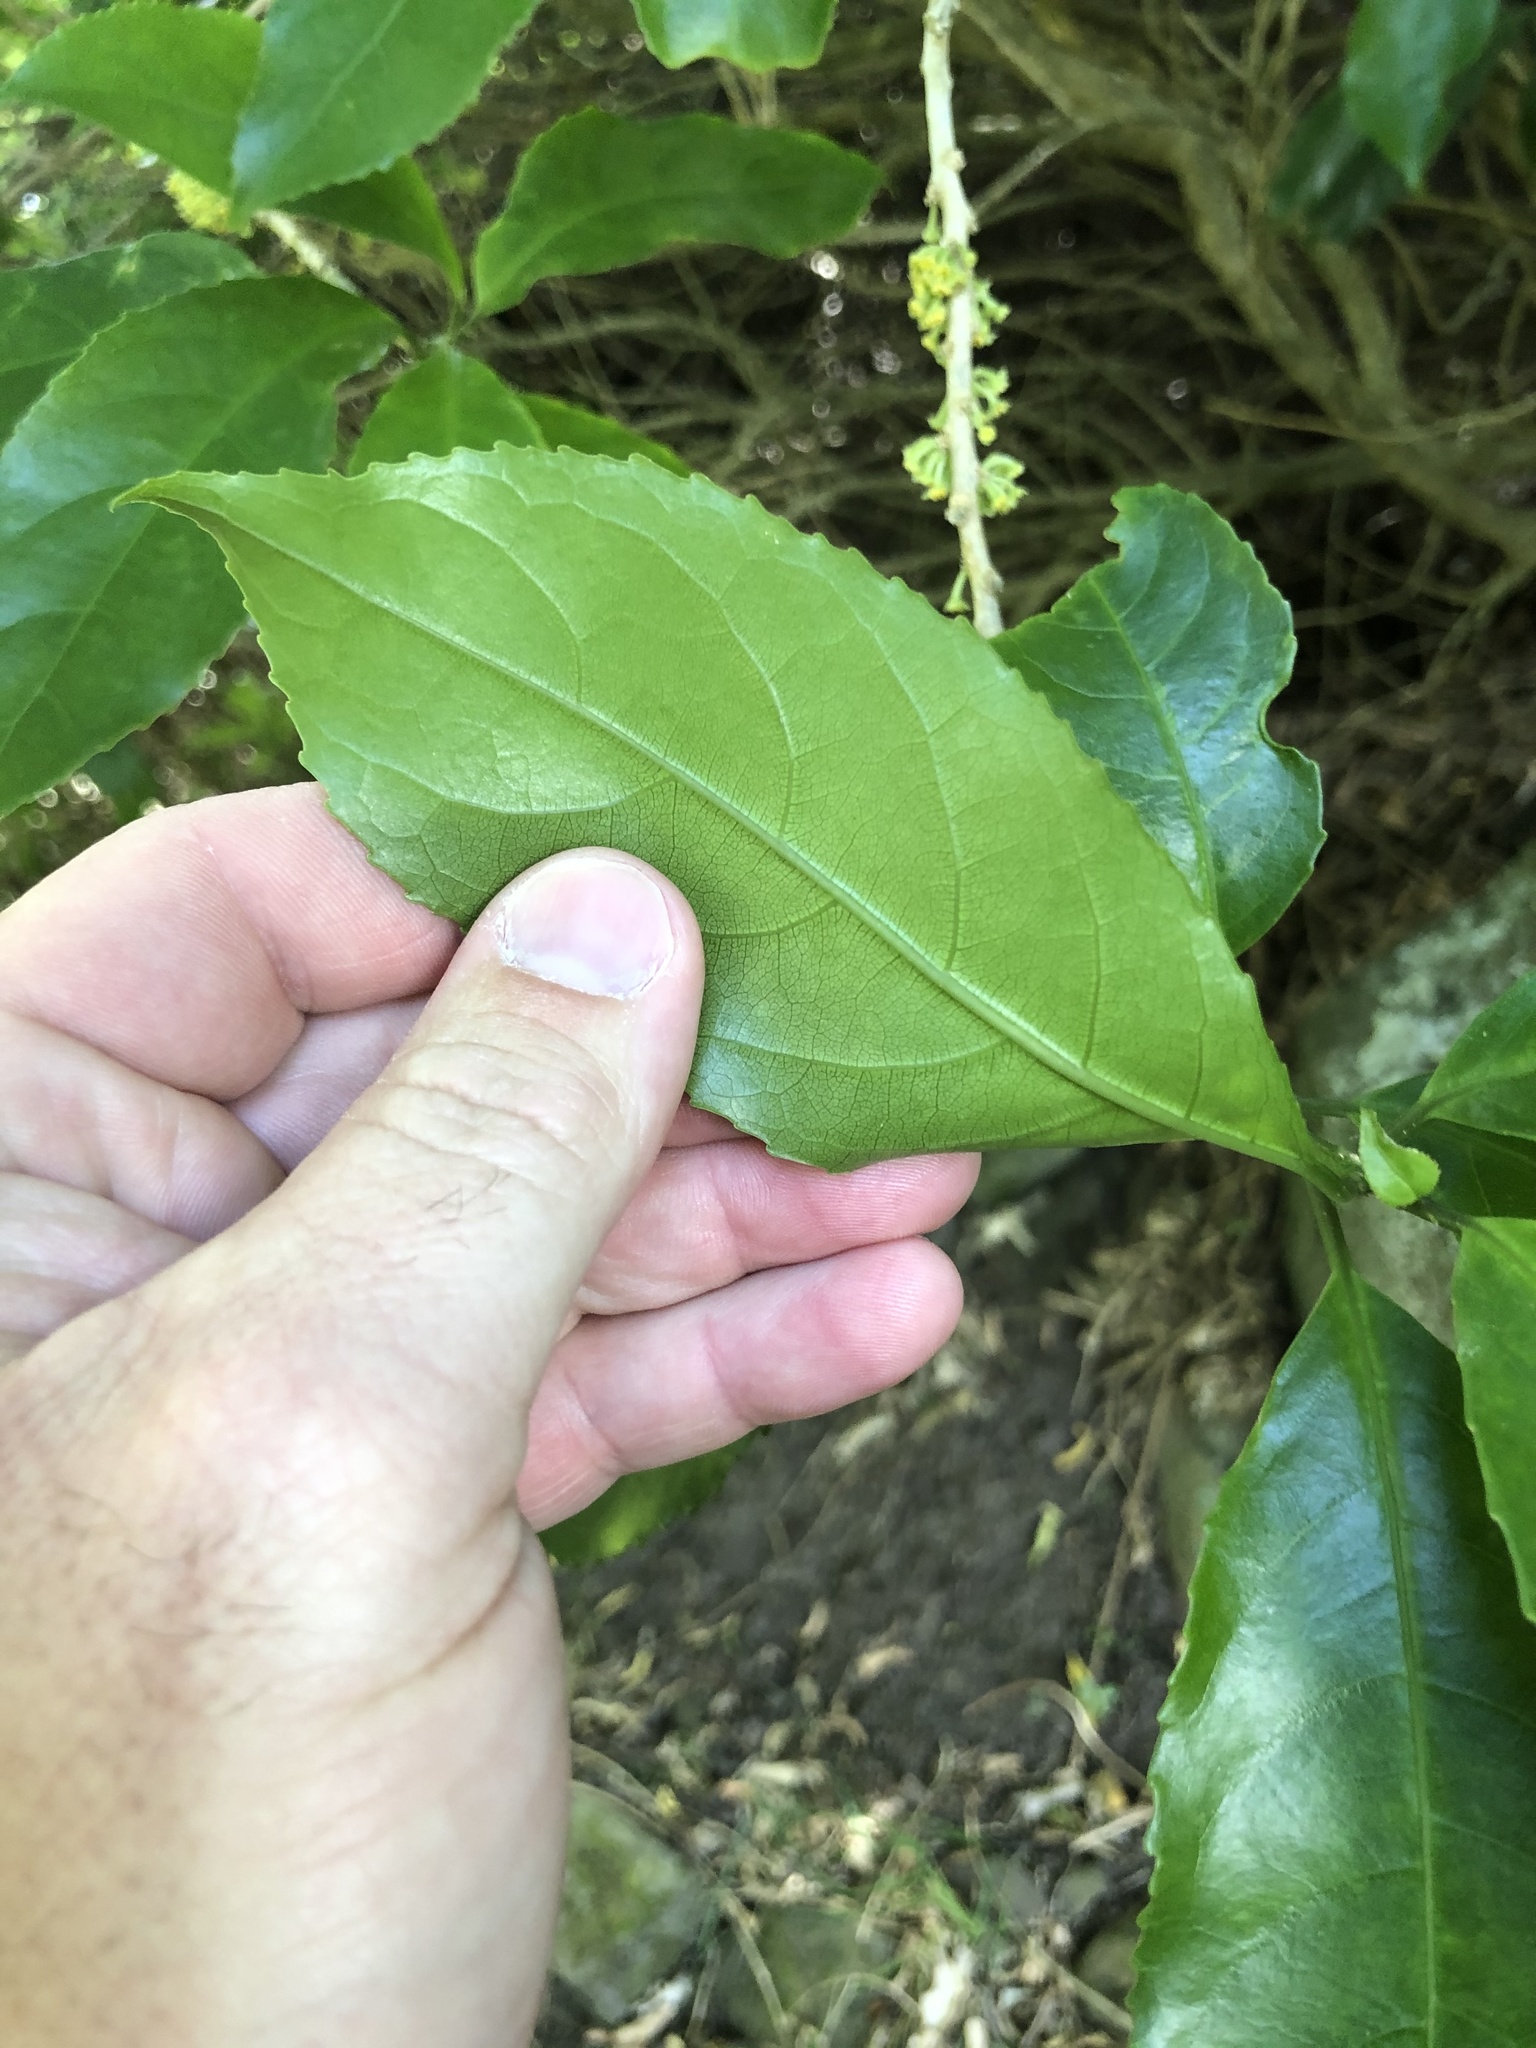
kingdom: Plantae
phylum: Tracheophyta
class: Magnoliopsida
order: Malpighiales
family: Violaceae
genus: Melicytus
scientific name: Melicytus ramiflorus
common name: Mahoe
